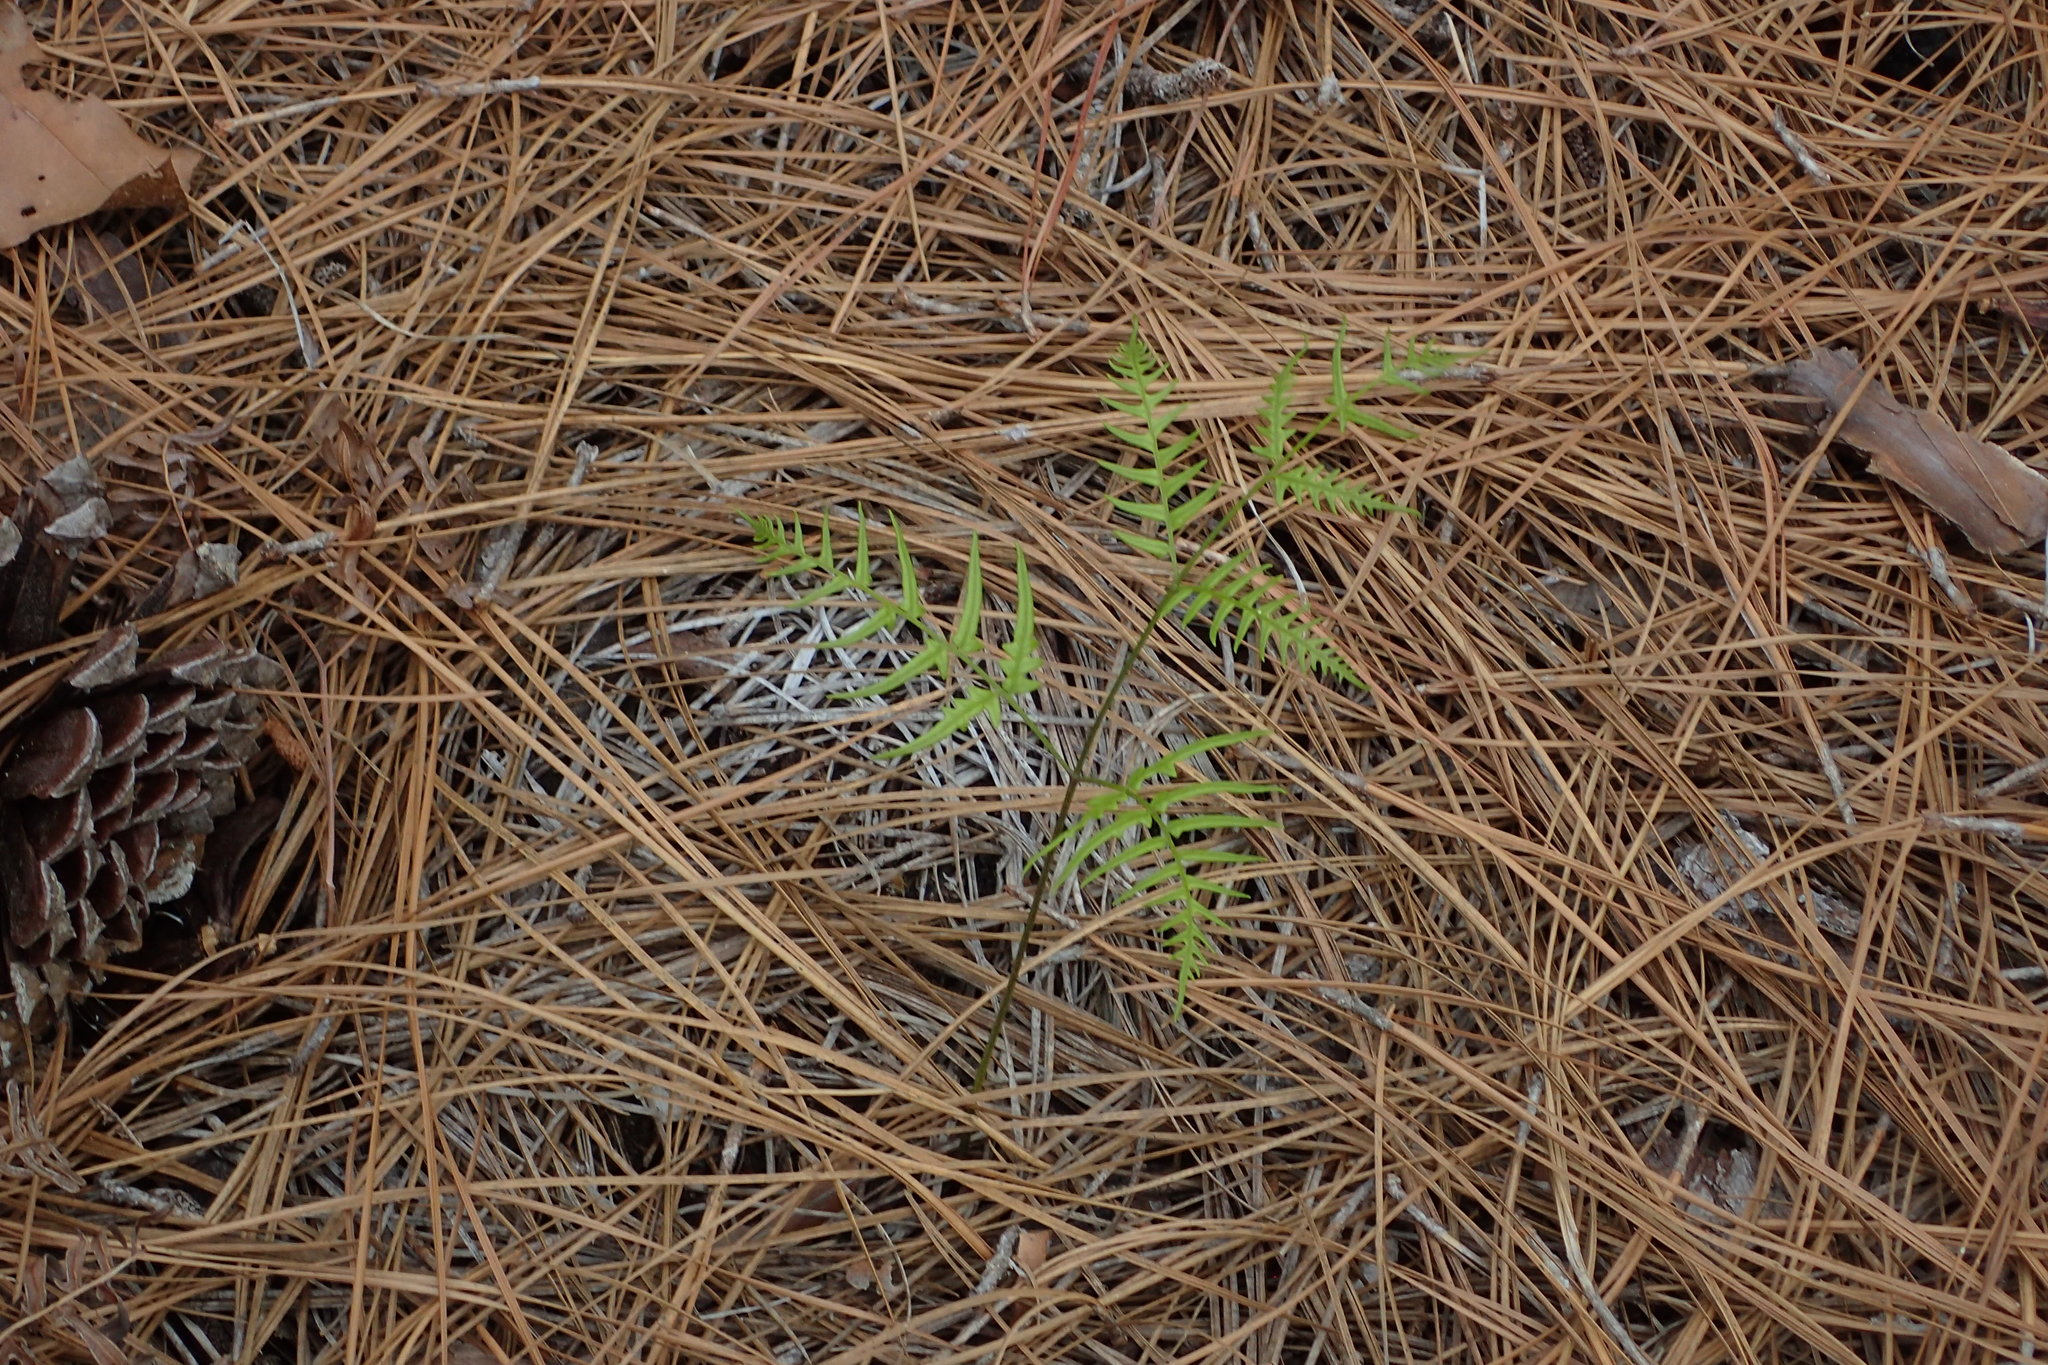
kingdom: Plantae
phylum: Tracheophyta
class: Polypodiopsida
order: Polypodiales
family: Dennstaedtiaceae
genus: Pteridium
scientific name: Pteridium aquilinum
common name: Bracken
